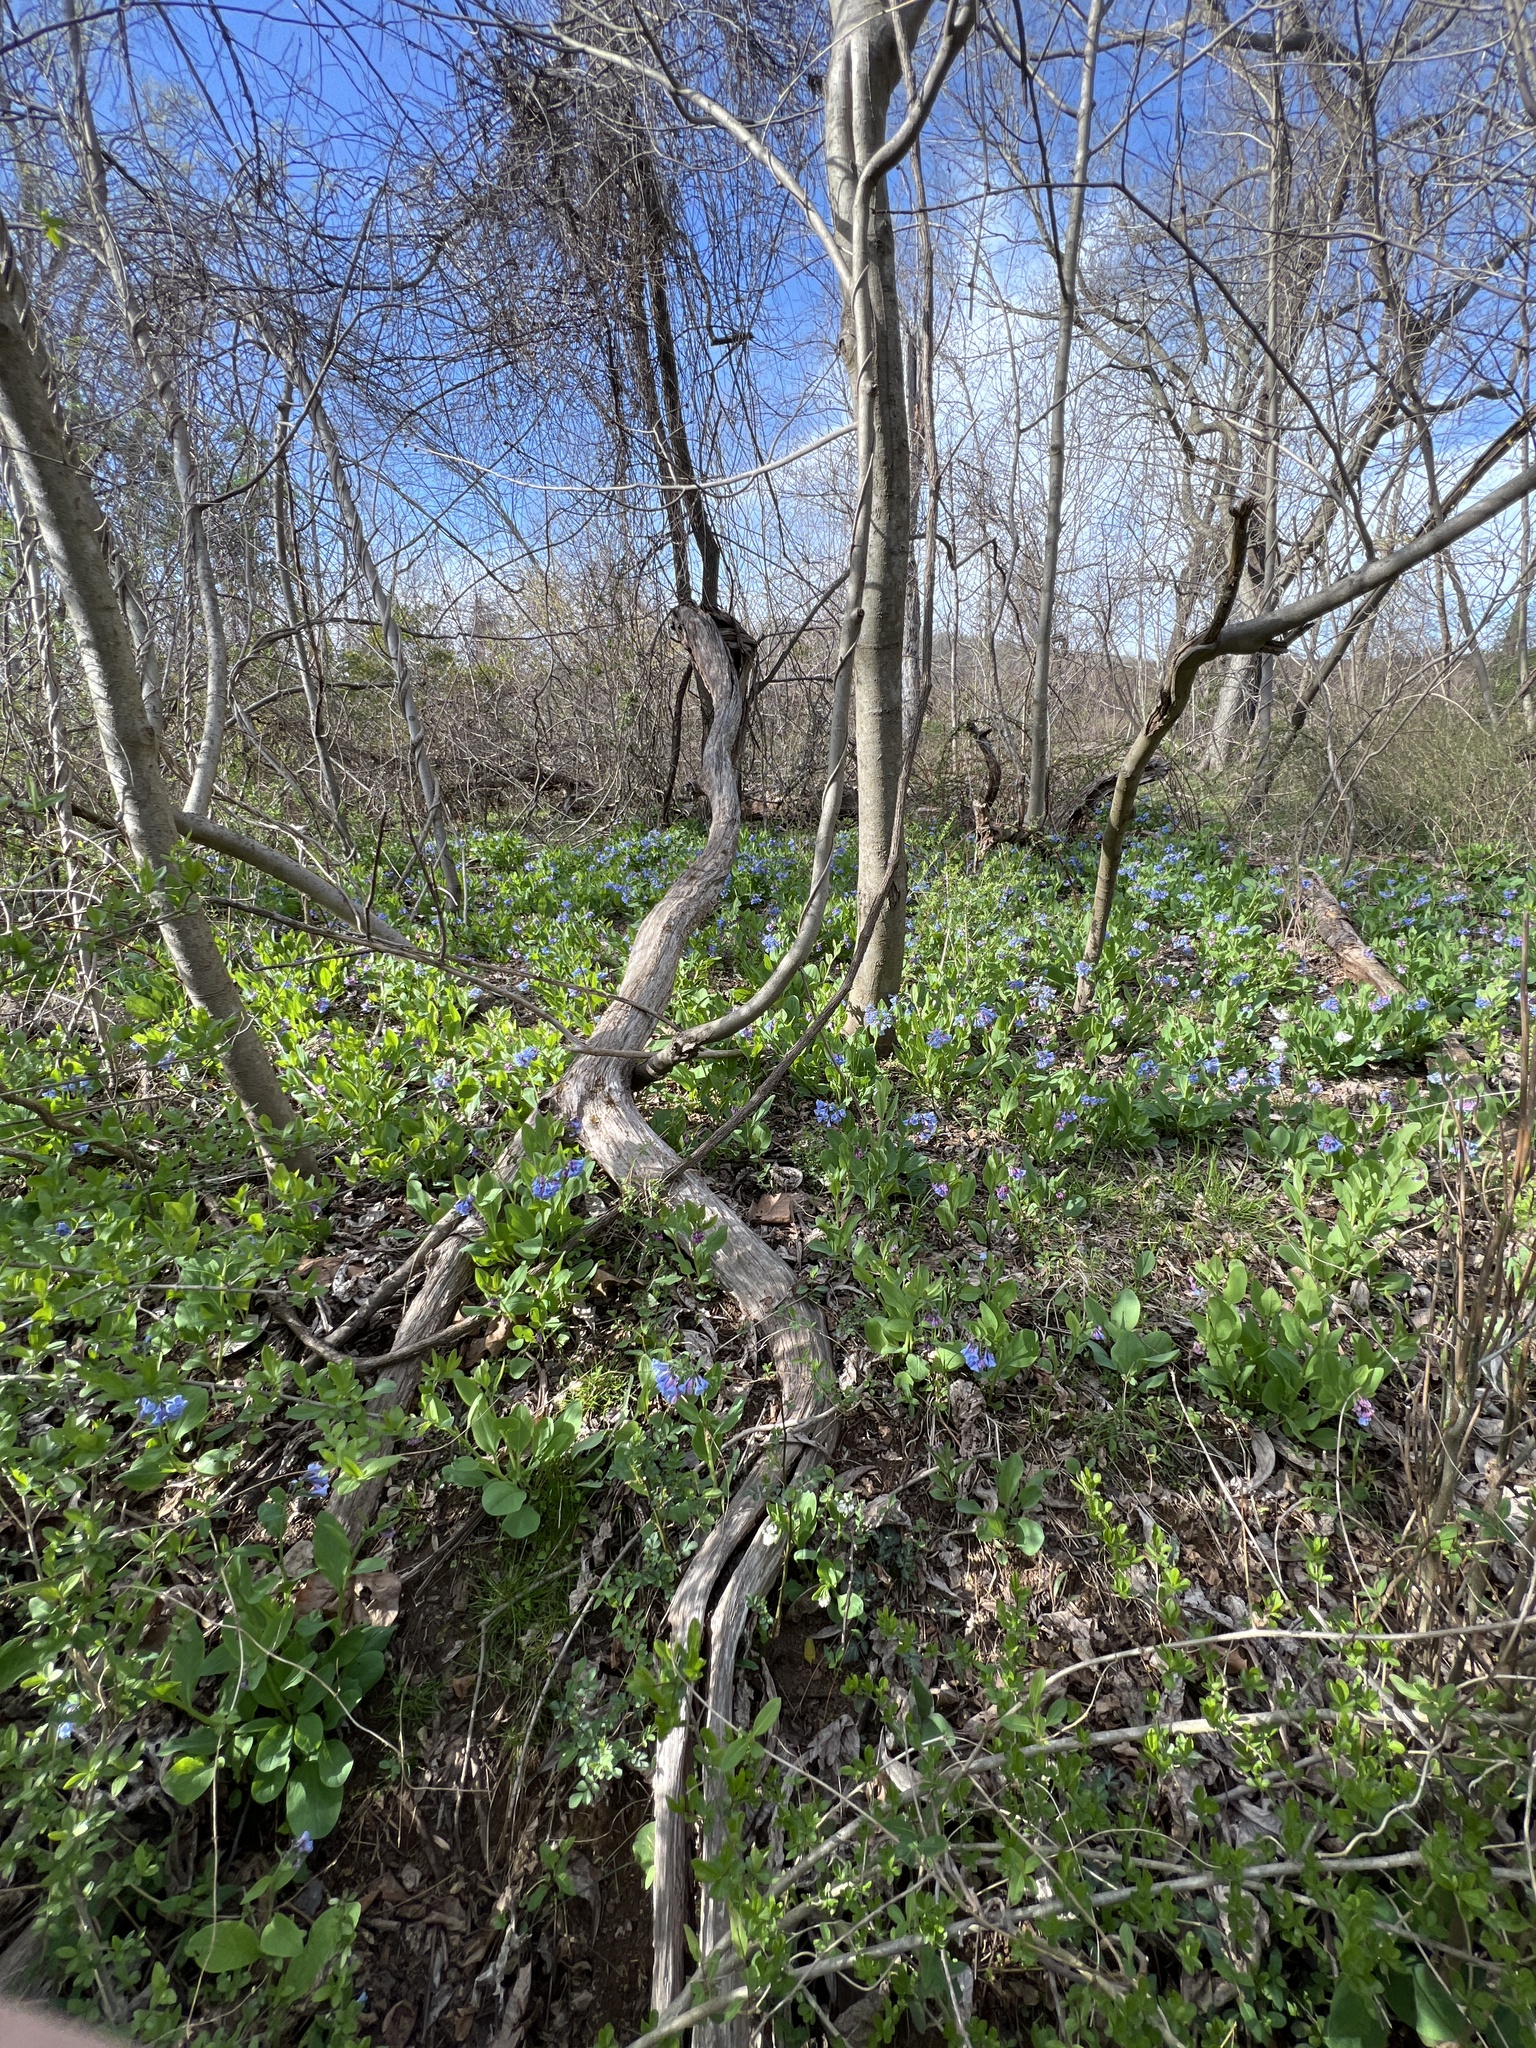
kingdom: Plantae
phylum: Tracheophyta
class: Magnoliopsida
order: Boraginales
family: Boraginaceae
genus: Mertensia
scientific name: Mertensia virginica
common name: Virginia bluebells
